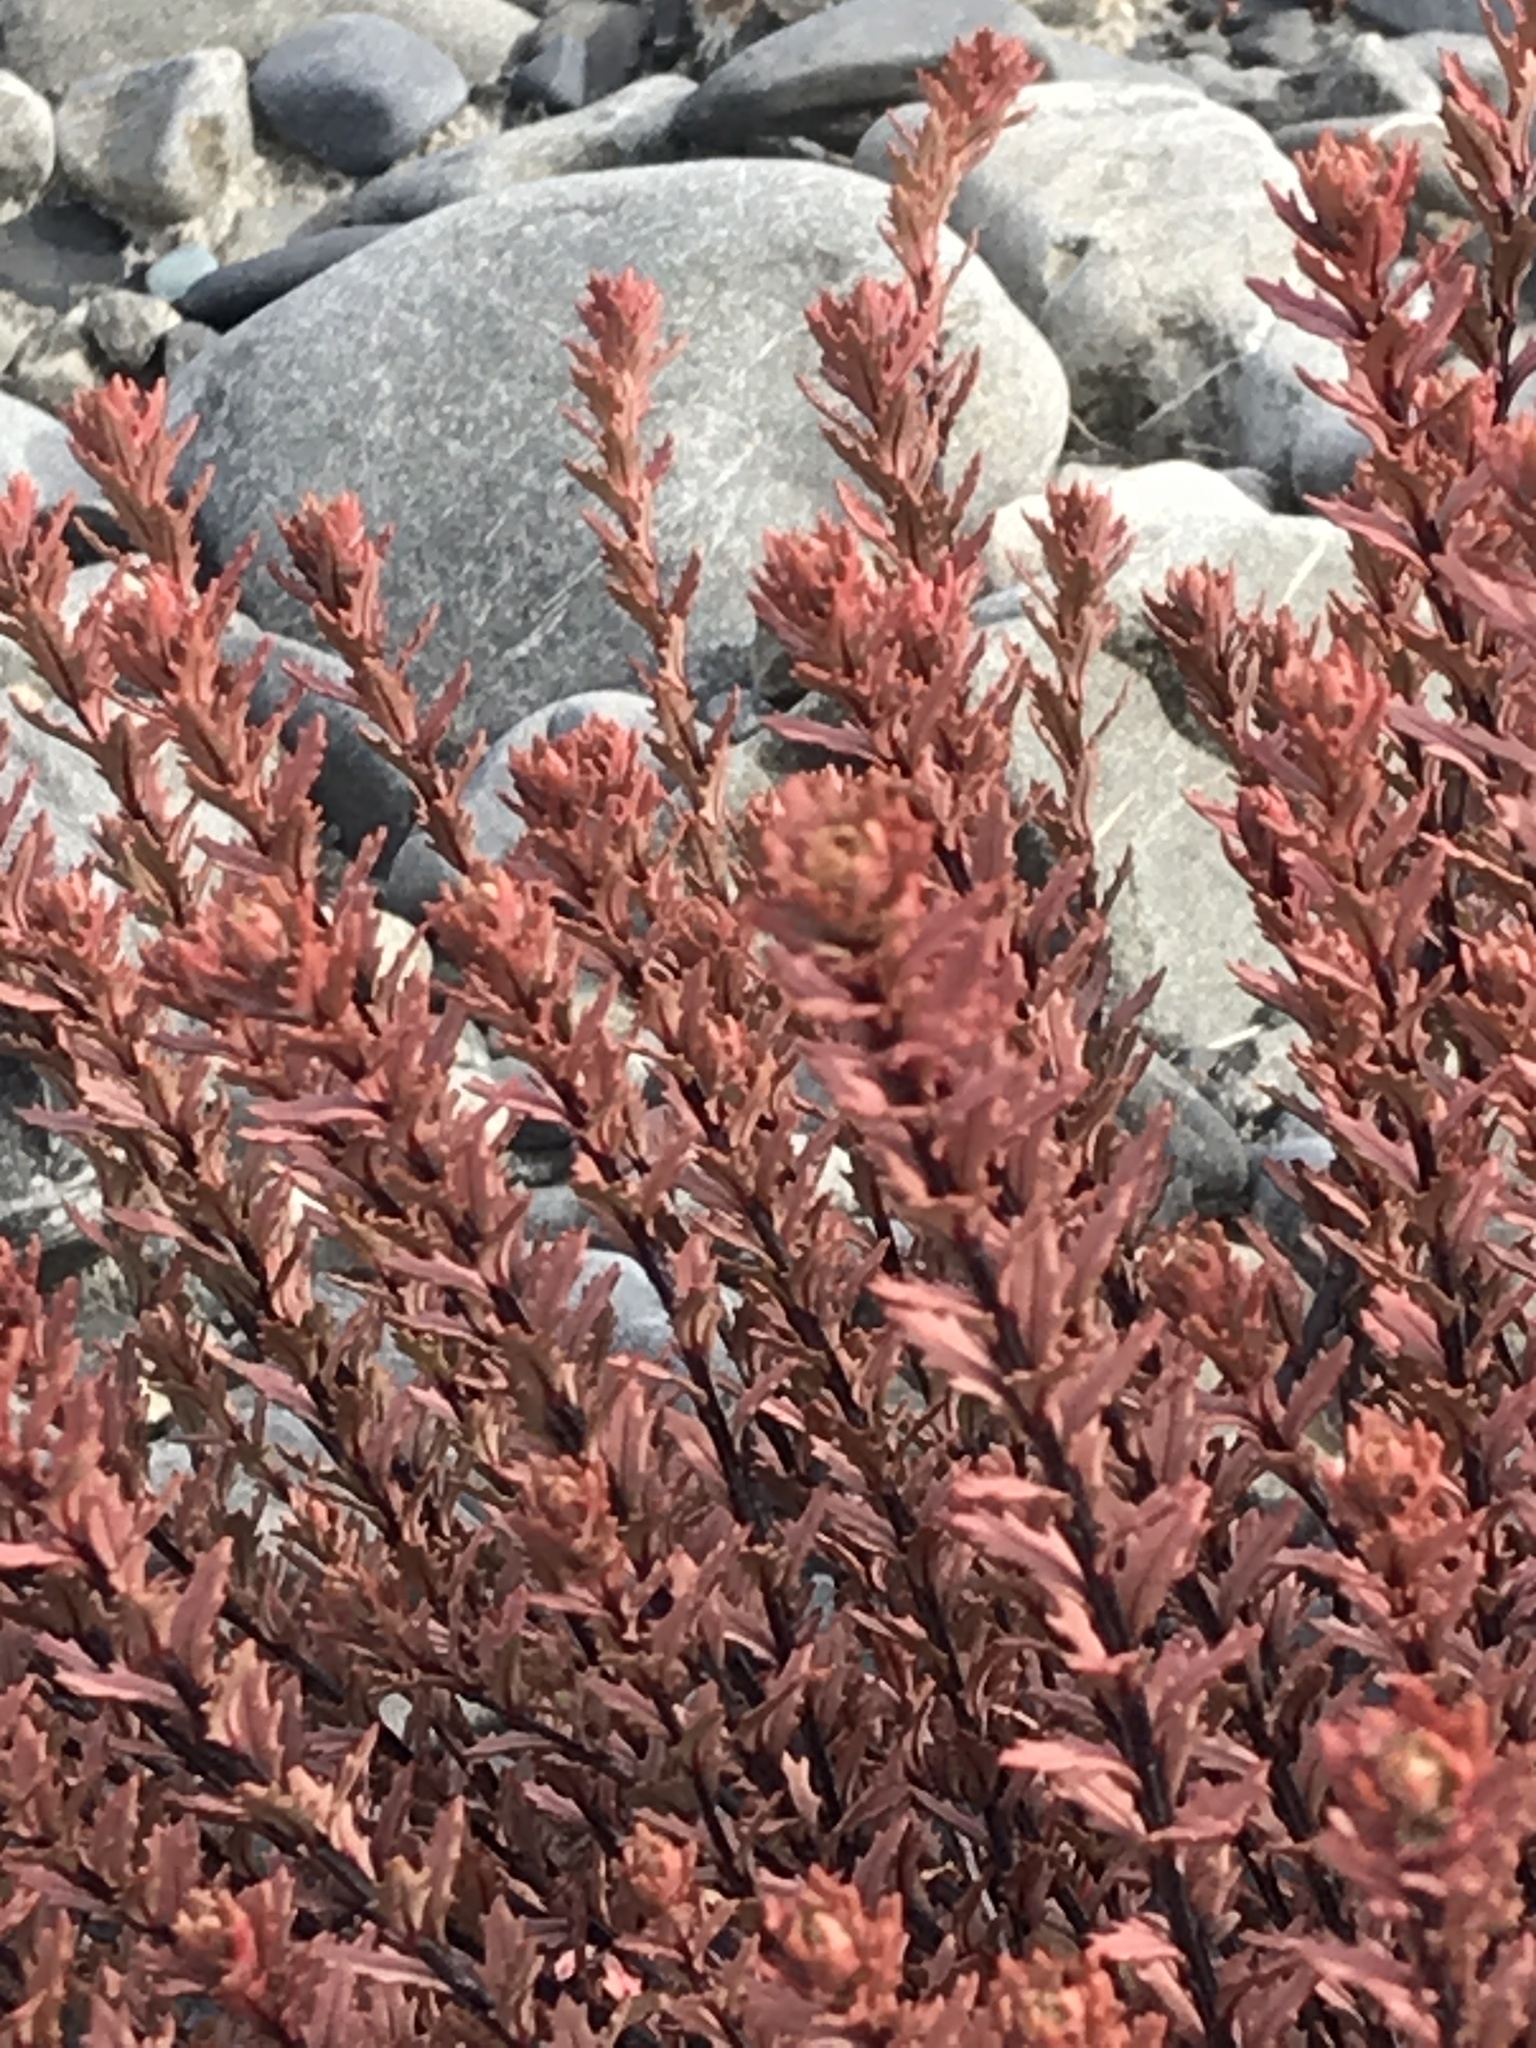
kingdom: Plantae
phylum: Tracheophyta
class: Magnoliopsida
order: Myrtales
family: Onagraceae
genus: Epilobium
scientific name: Epilobium melanocaulon
